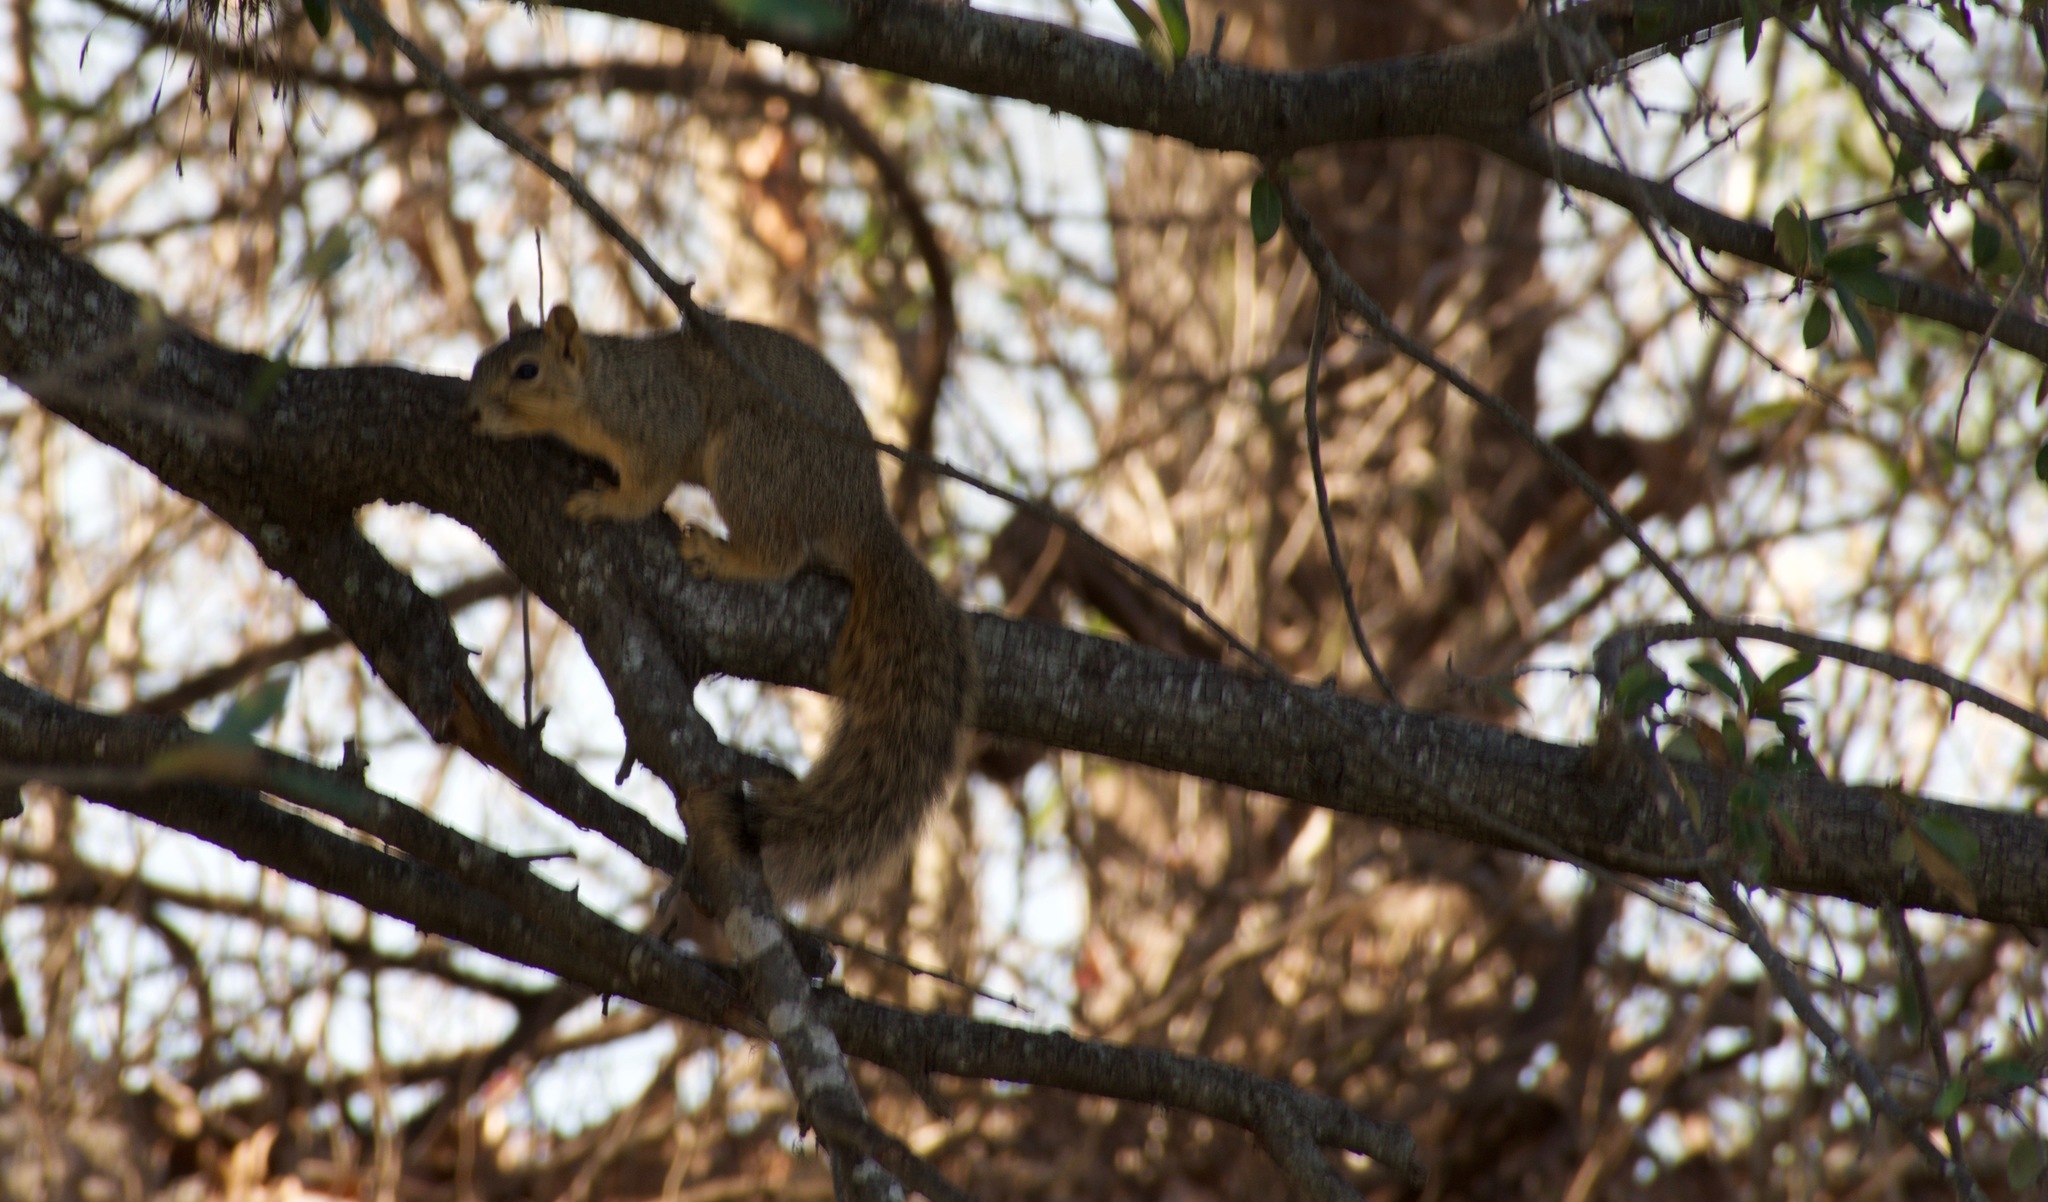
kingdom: Animalia
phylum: Chordata
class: Mammalia
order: Rodentia
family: Sciuridae
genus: Sciurus
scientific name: Sciurus niger
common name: Fox squirrel
